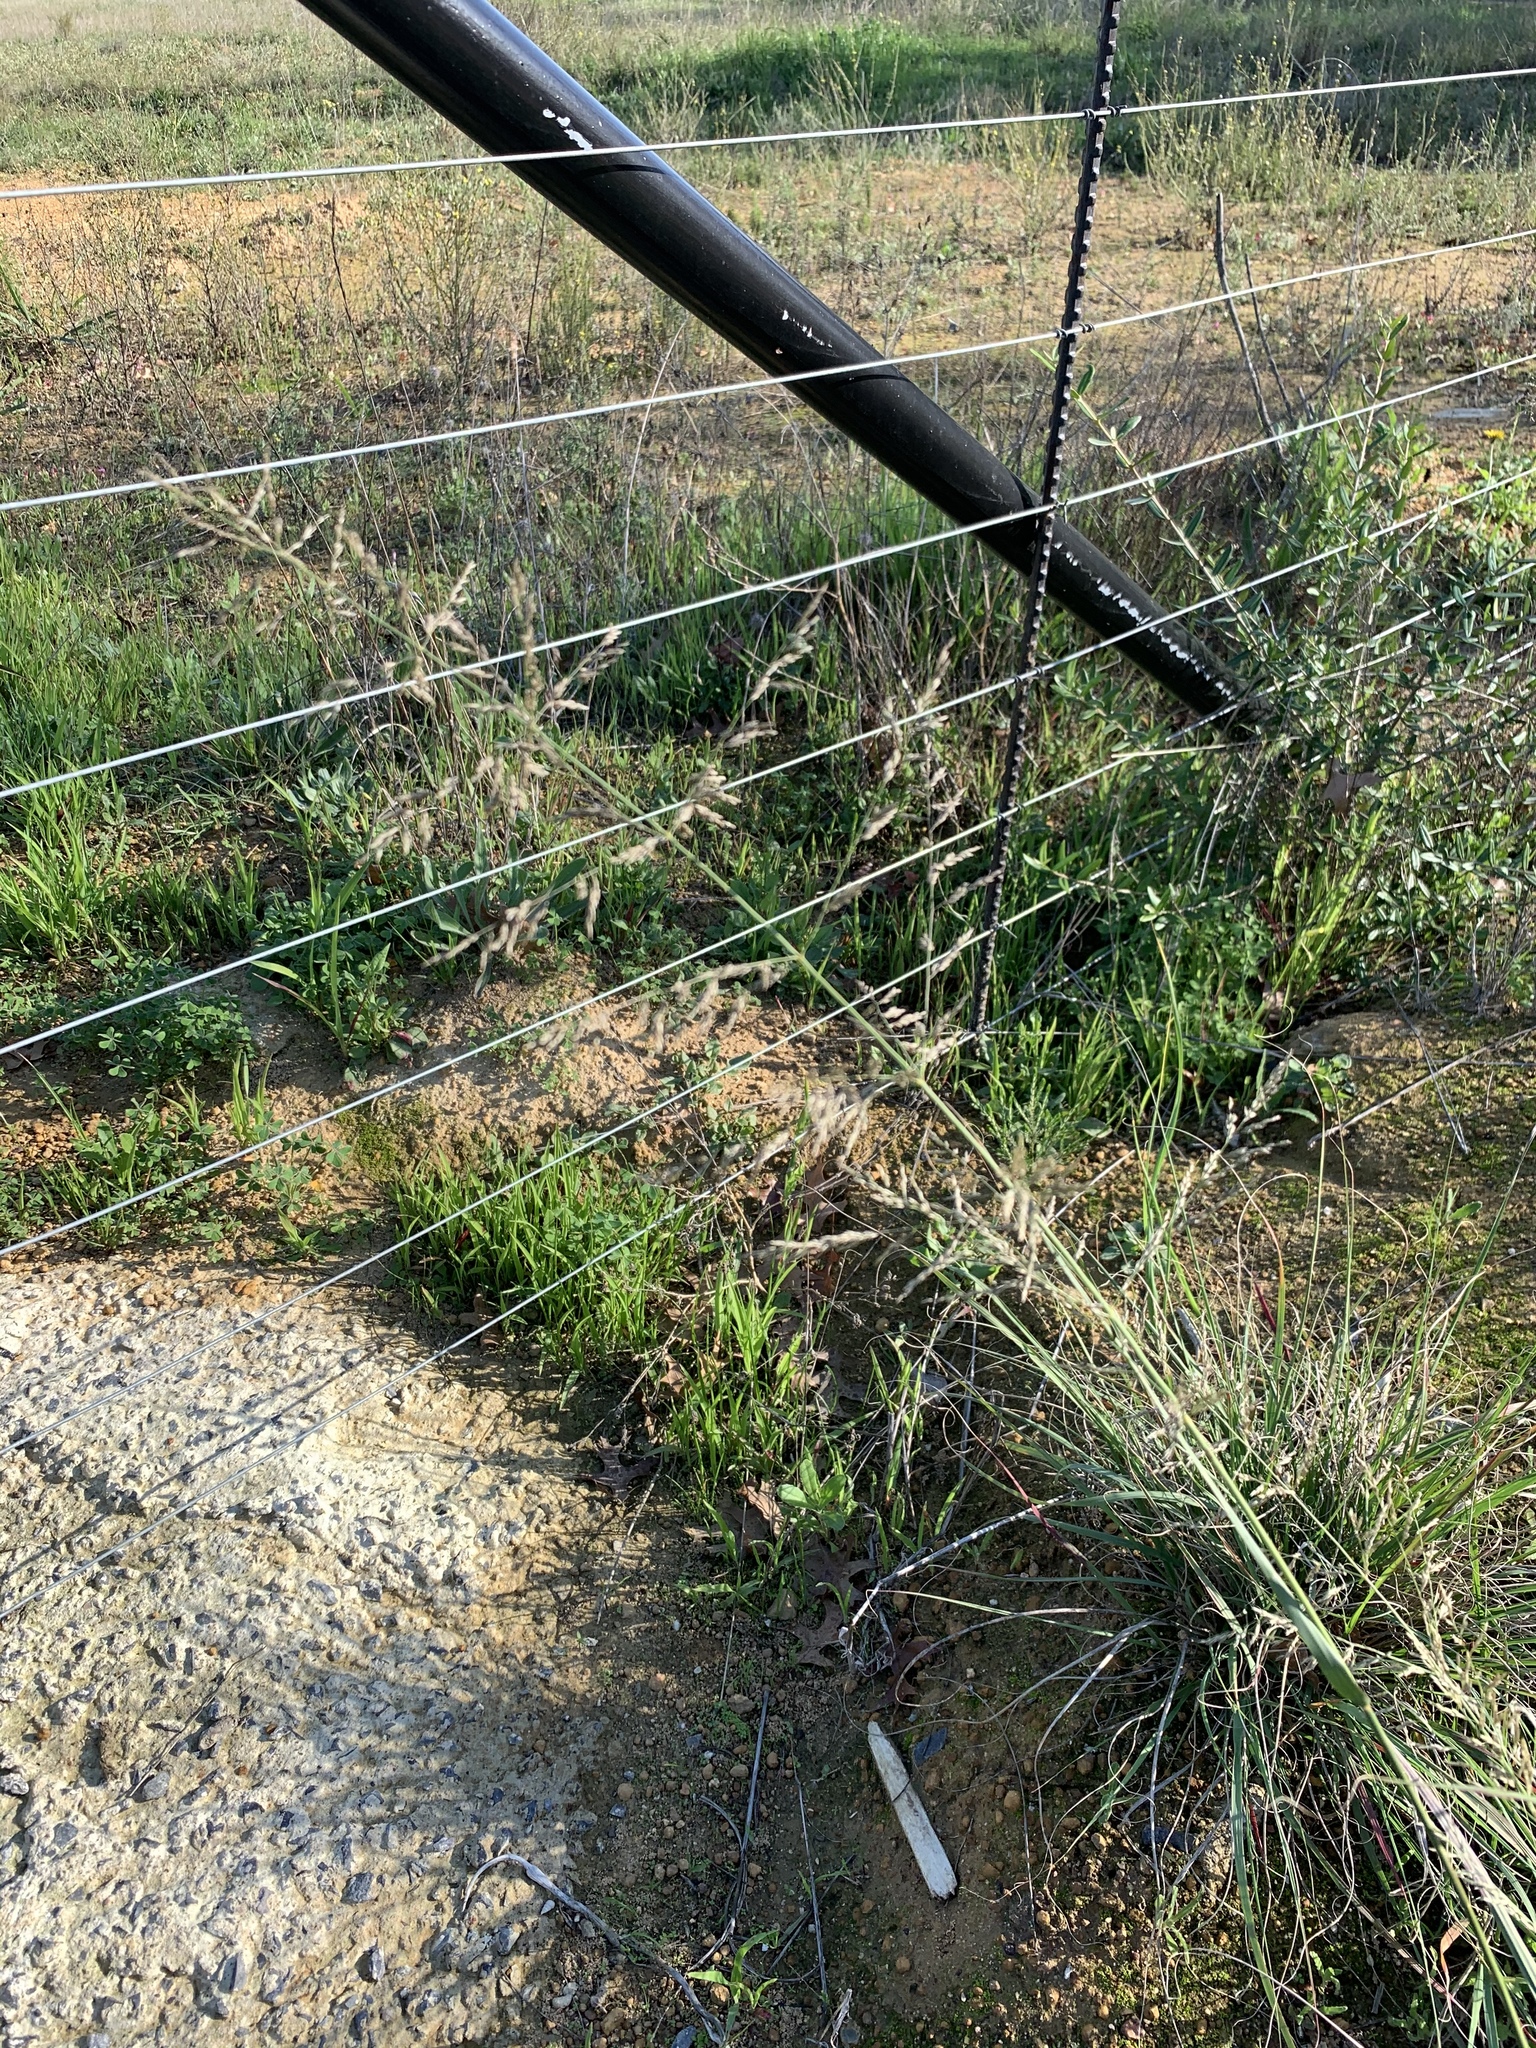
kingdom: Plantae
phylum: Tracheophyta
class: Liliopsida
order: Poales
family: Poaceae
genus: Eragrostis
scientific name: Eragrostis curvula
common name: African love-grass
